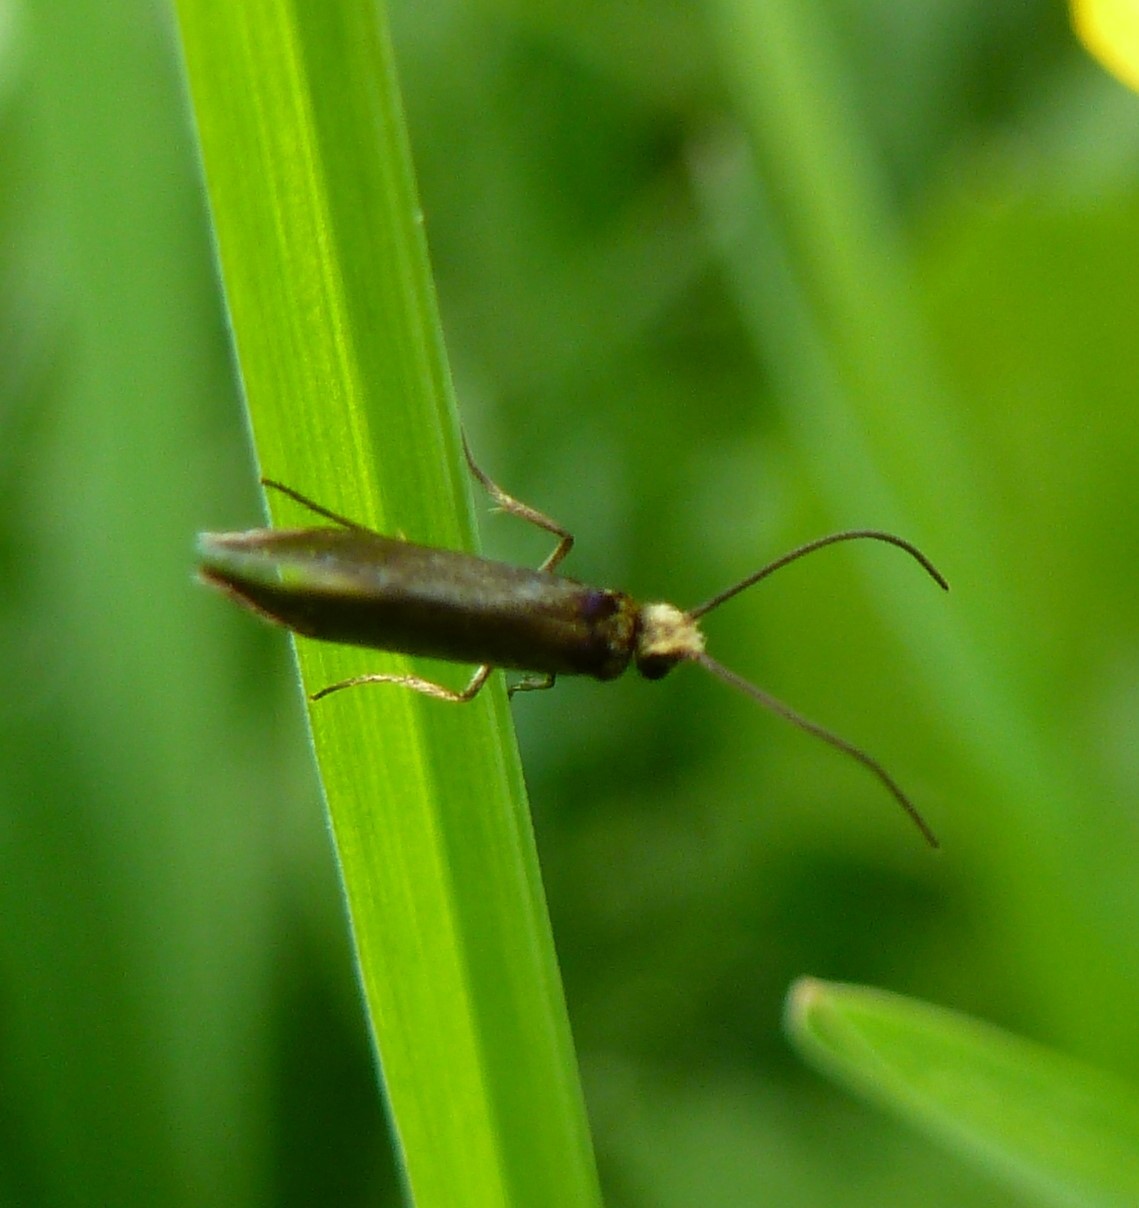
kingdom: Animalia
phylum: Arthropoda
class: Insecta
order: Lepidoptera
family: Micropterigidae
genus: Micropterix
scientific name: Micropterix calthella
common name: Plain gold
